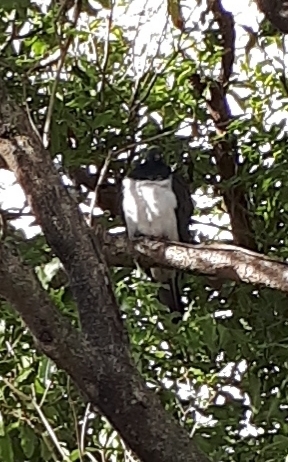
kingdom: Animalia
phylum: Chordata
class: Aves
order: Columbiformes
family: Columbidae
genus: Hemiphaga
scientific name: Hemiphaga novaeseelandiae
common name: New zealand pigeon
